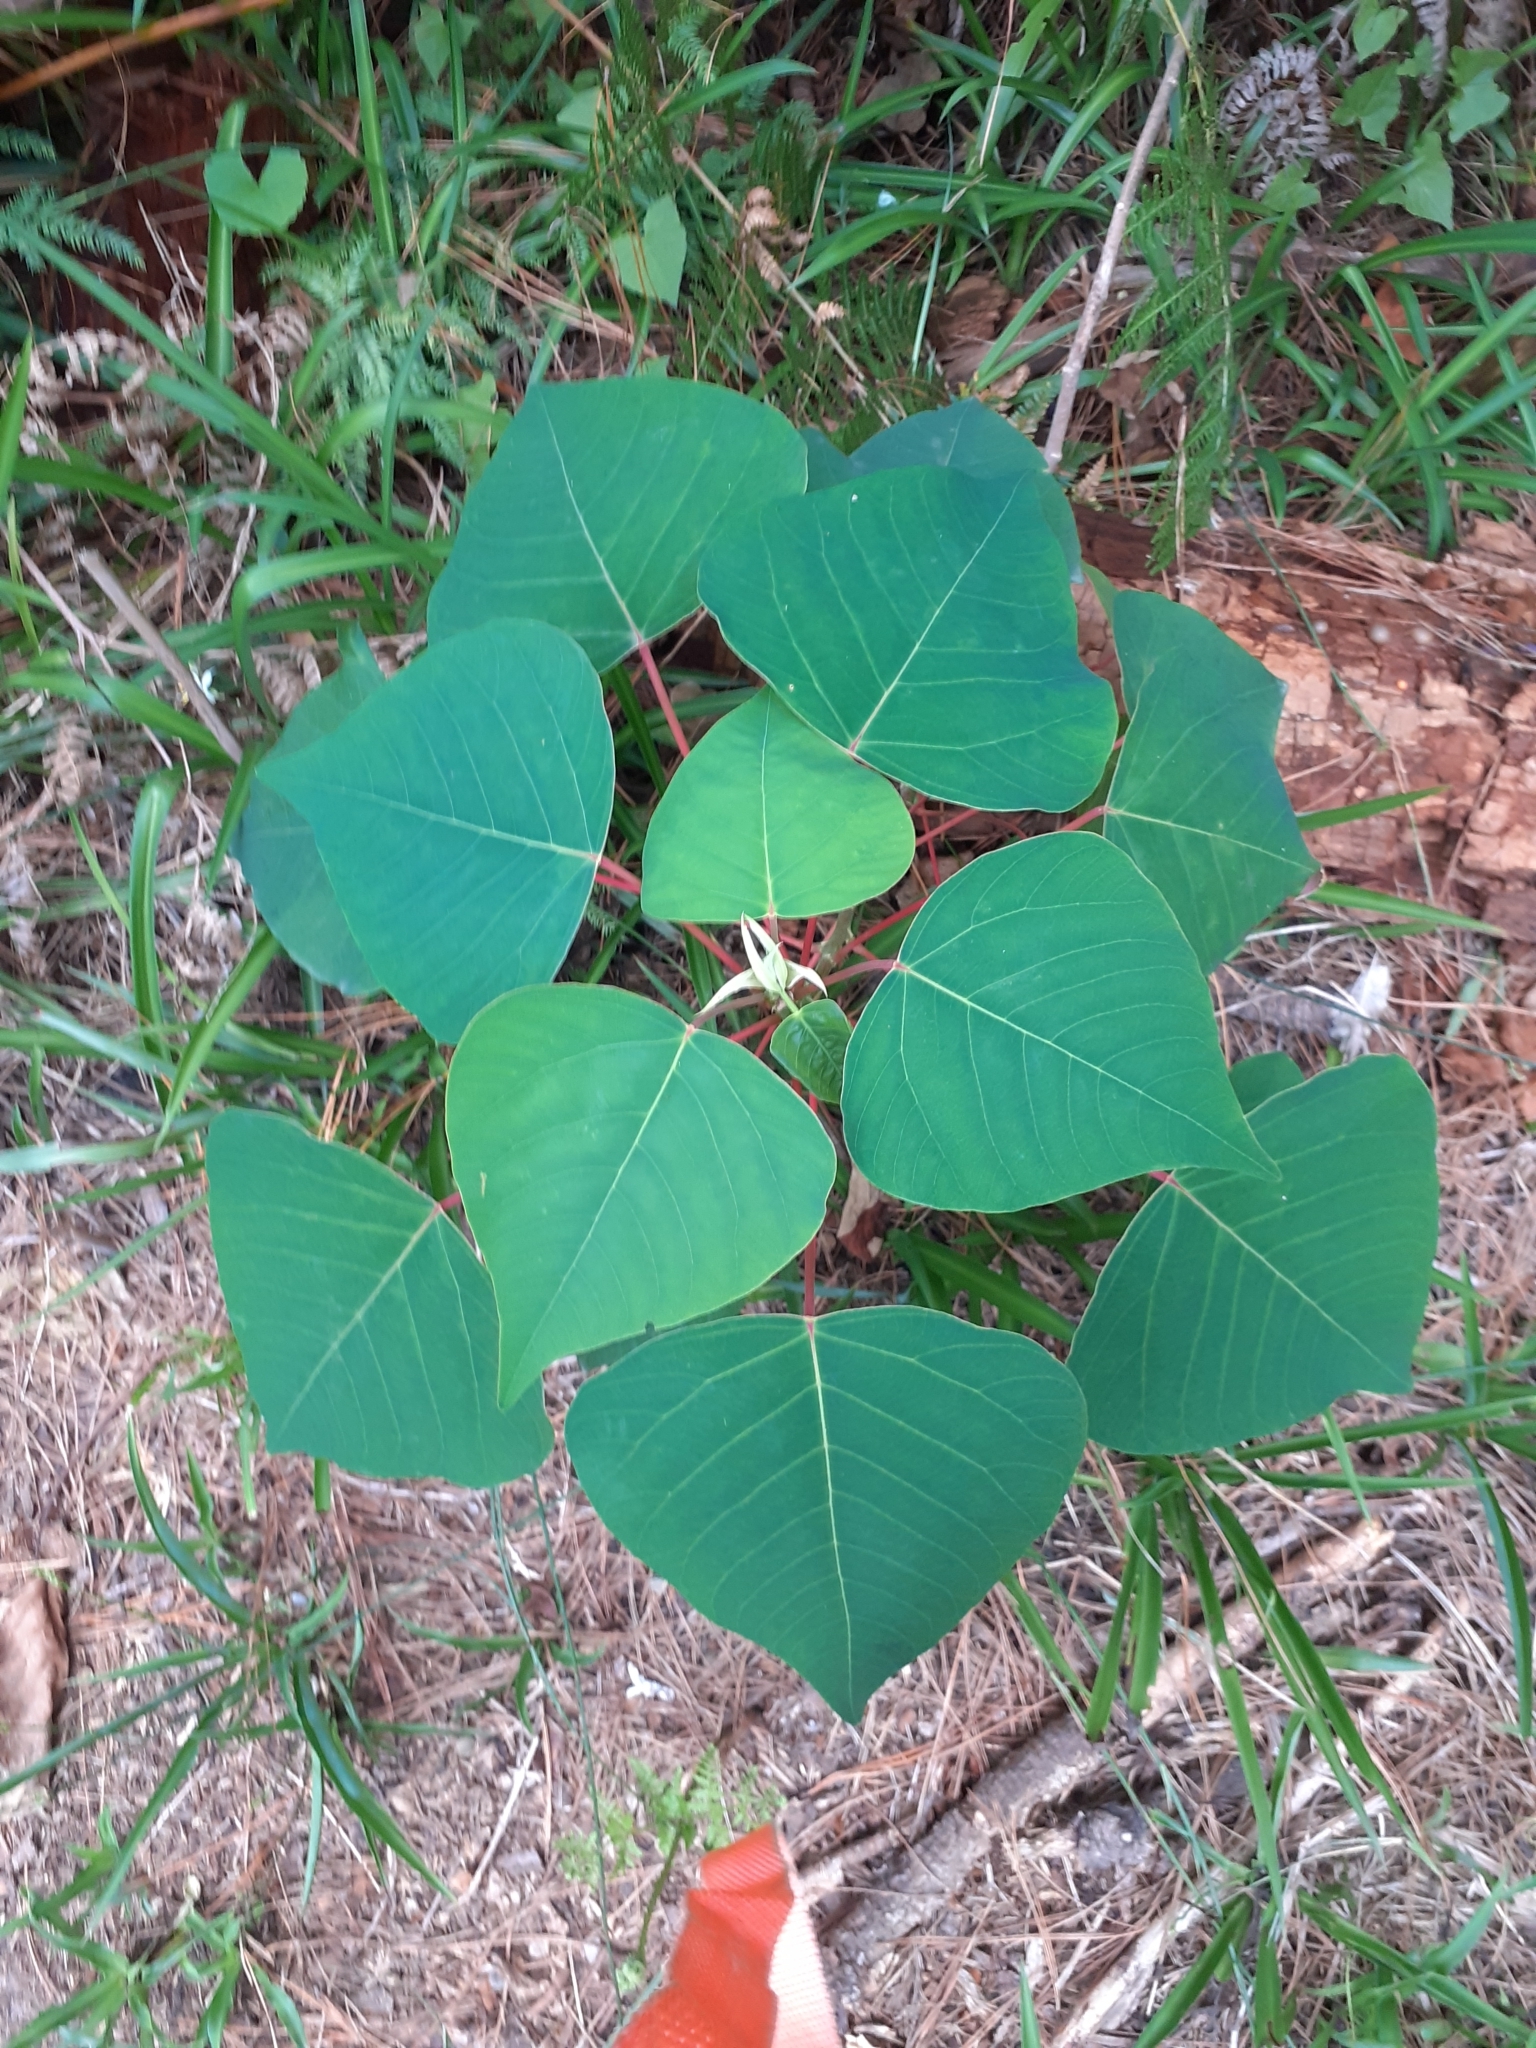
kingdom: Plantae
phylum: Tracheophyta
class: Magnoliopsida
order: Malpighiales
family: Euphorbiaceae
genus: Homalanthus
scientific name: Homalanthus populifolius
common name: Queensland poplar
